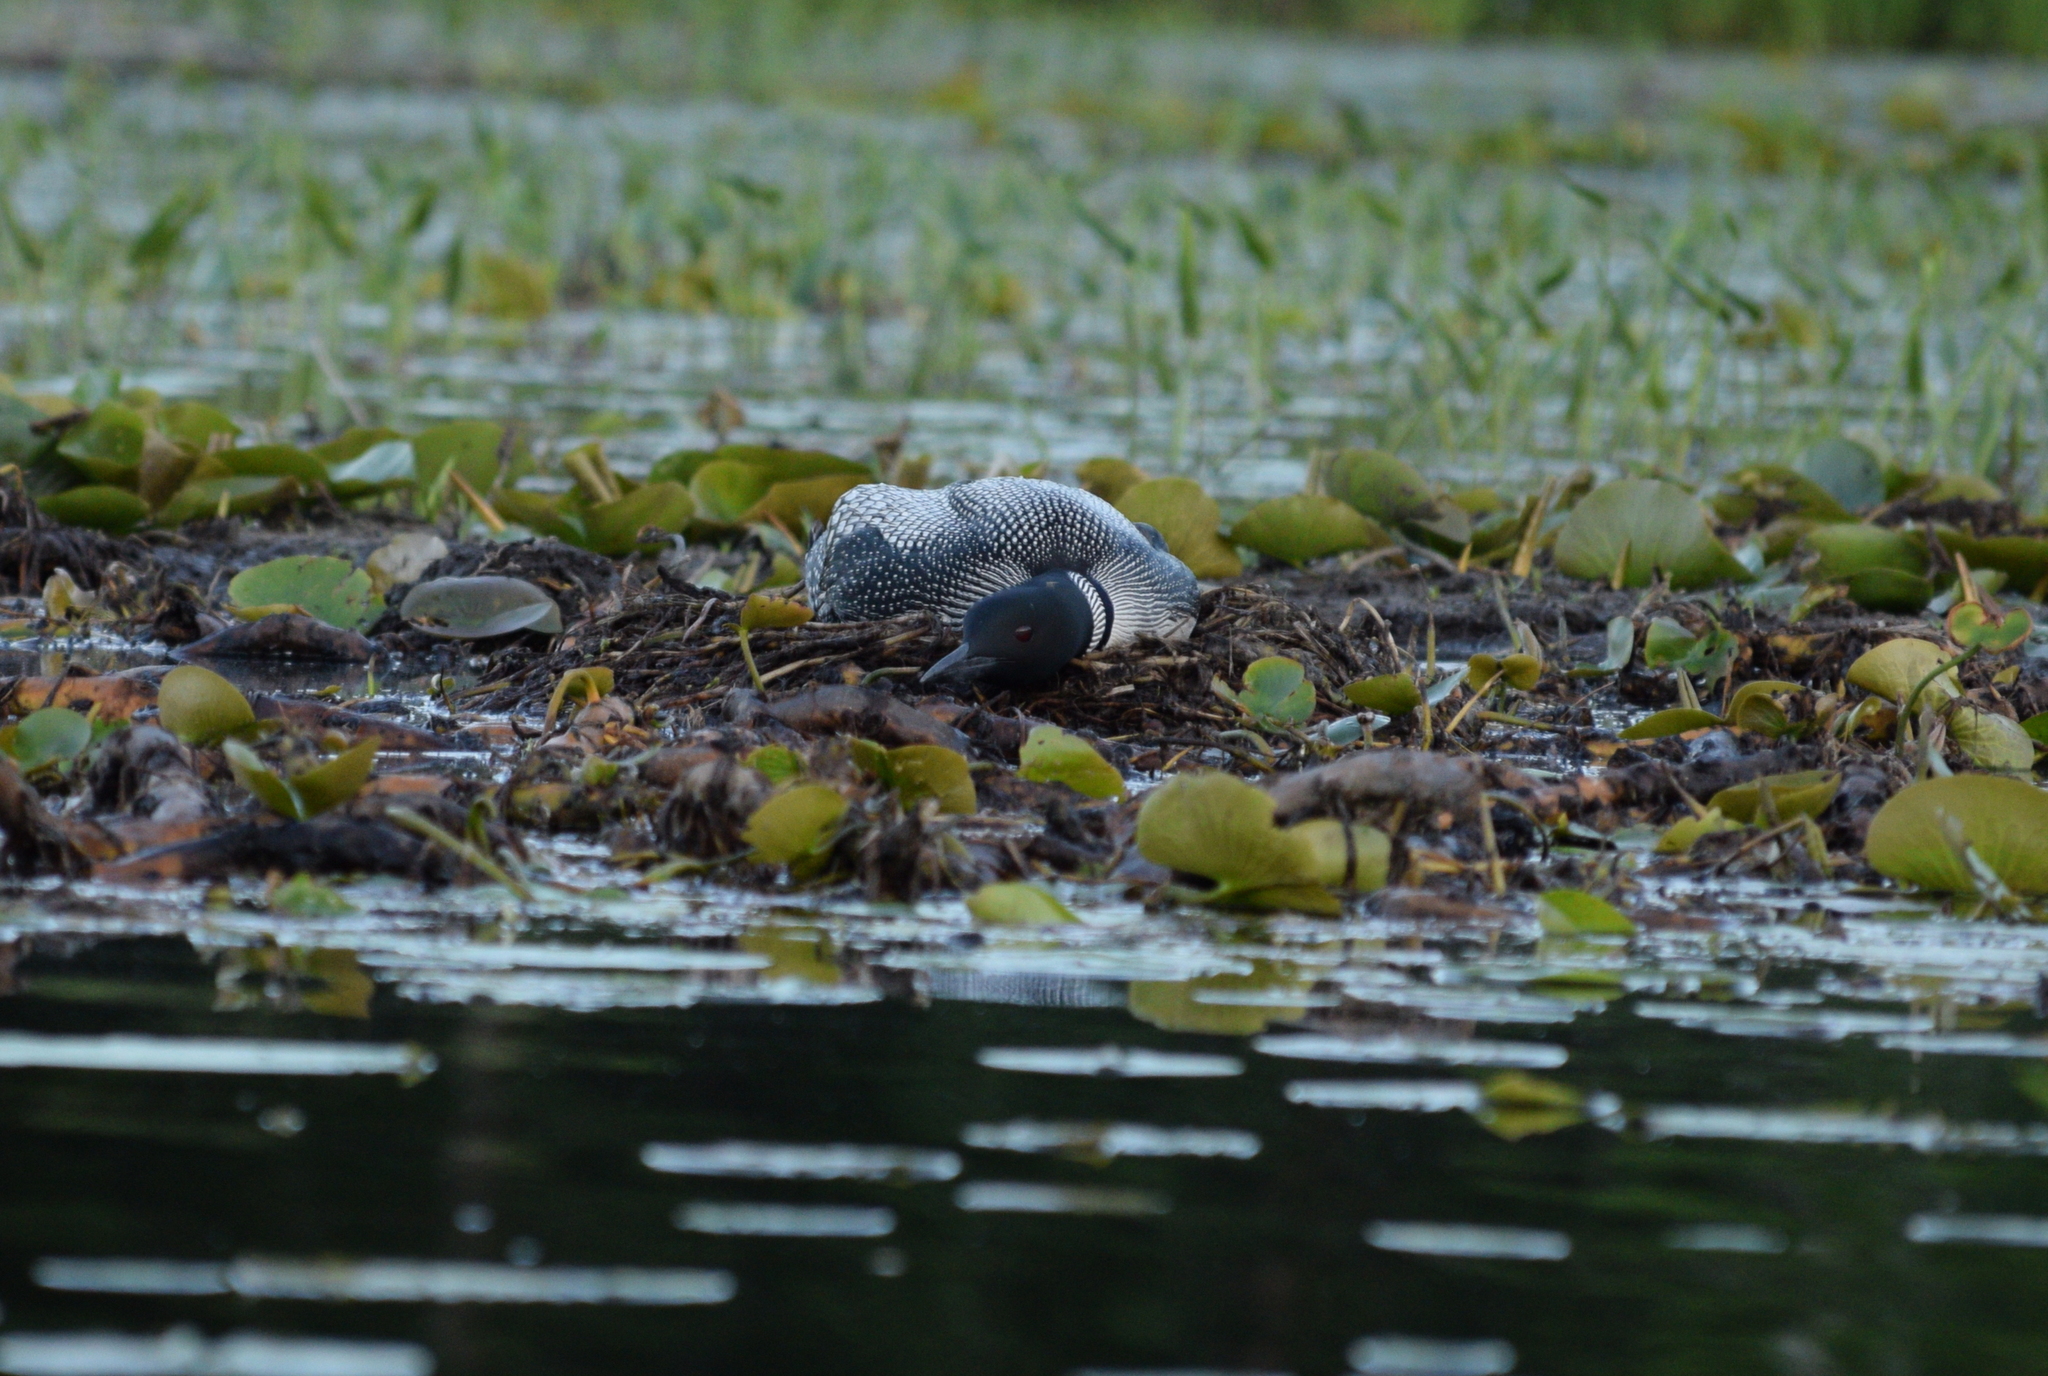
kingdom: Animalia
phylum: Chordata
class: Aves
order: Gaviiformes
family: Gaviidae
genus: Gavia
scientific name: Gavia immer
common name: Common loon
